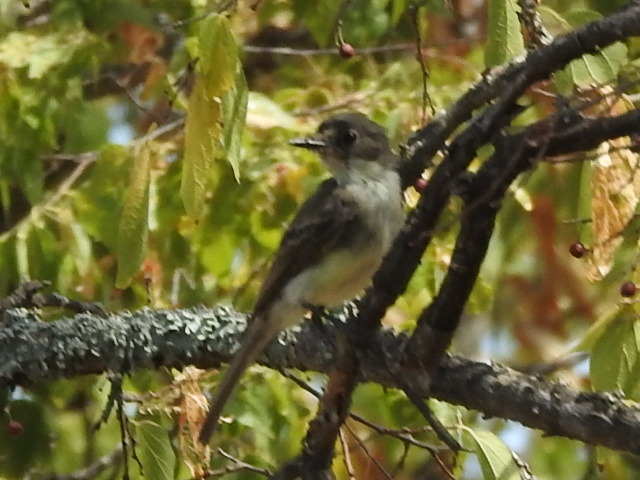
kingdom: Animalia
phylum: Chordata
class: Aves
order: Passeriformes
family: Tyrannidae
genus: Sayornis
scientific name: Sayornis phoebe
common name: Eastern phoebe
